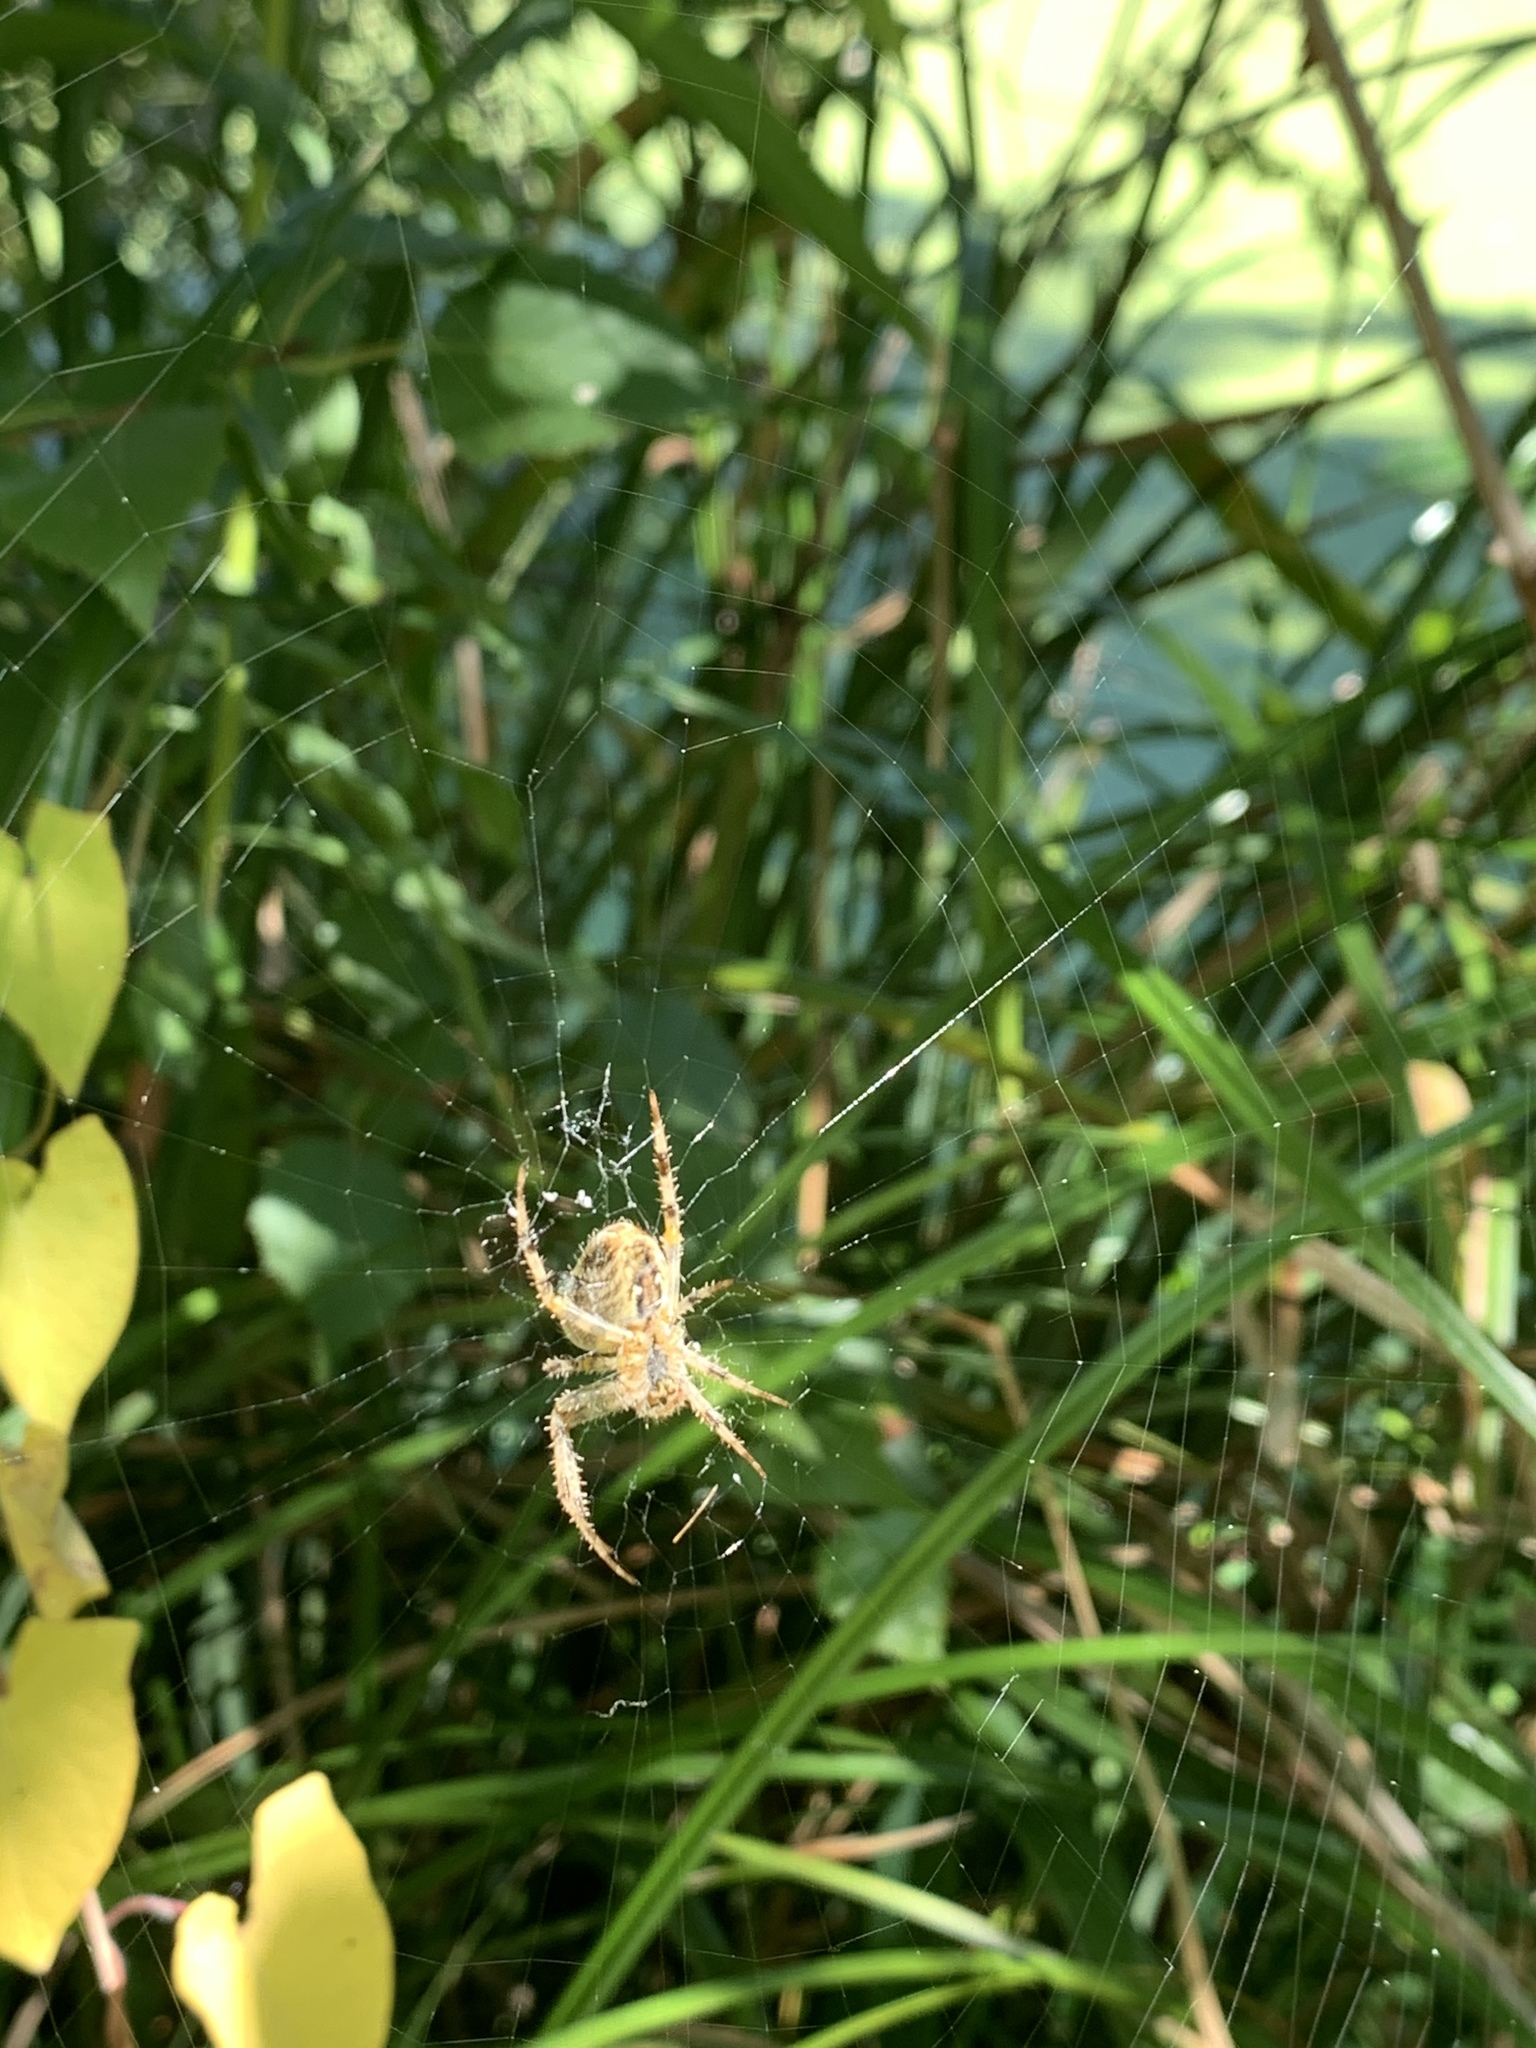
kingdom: Animalia
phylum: Arthropoda
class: Arachnida
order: Araneae
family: Araneidae
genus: Araneus
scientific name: Araneus diadematus
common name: Cross orbweaver
